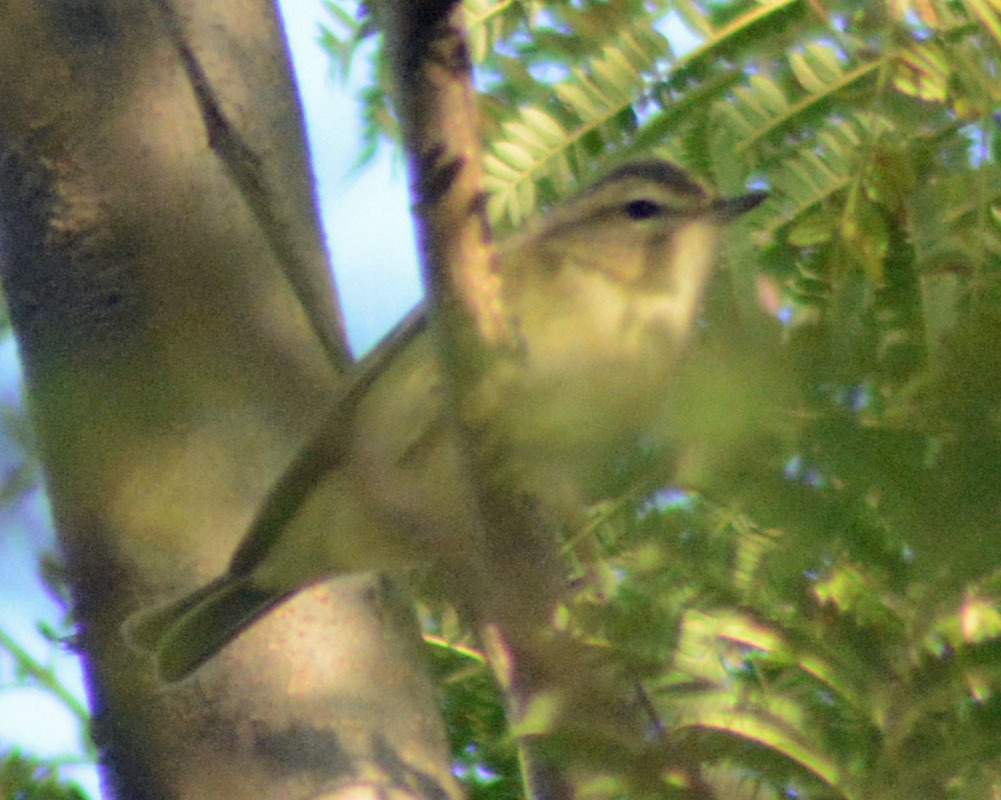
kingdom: Animalia
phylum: Chordata
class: Aves
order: Passeriformes
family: Vireonidae
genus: Vireo
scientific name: Vireo gilvus
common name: Warbling vireo
